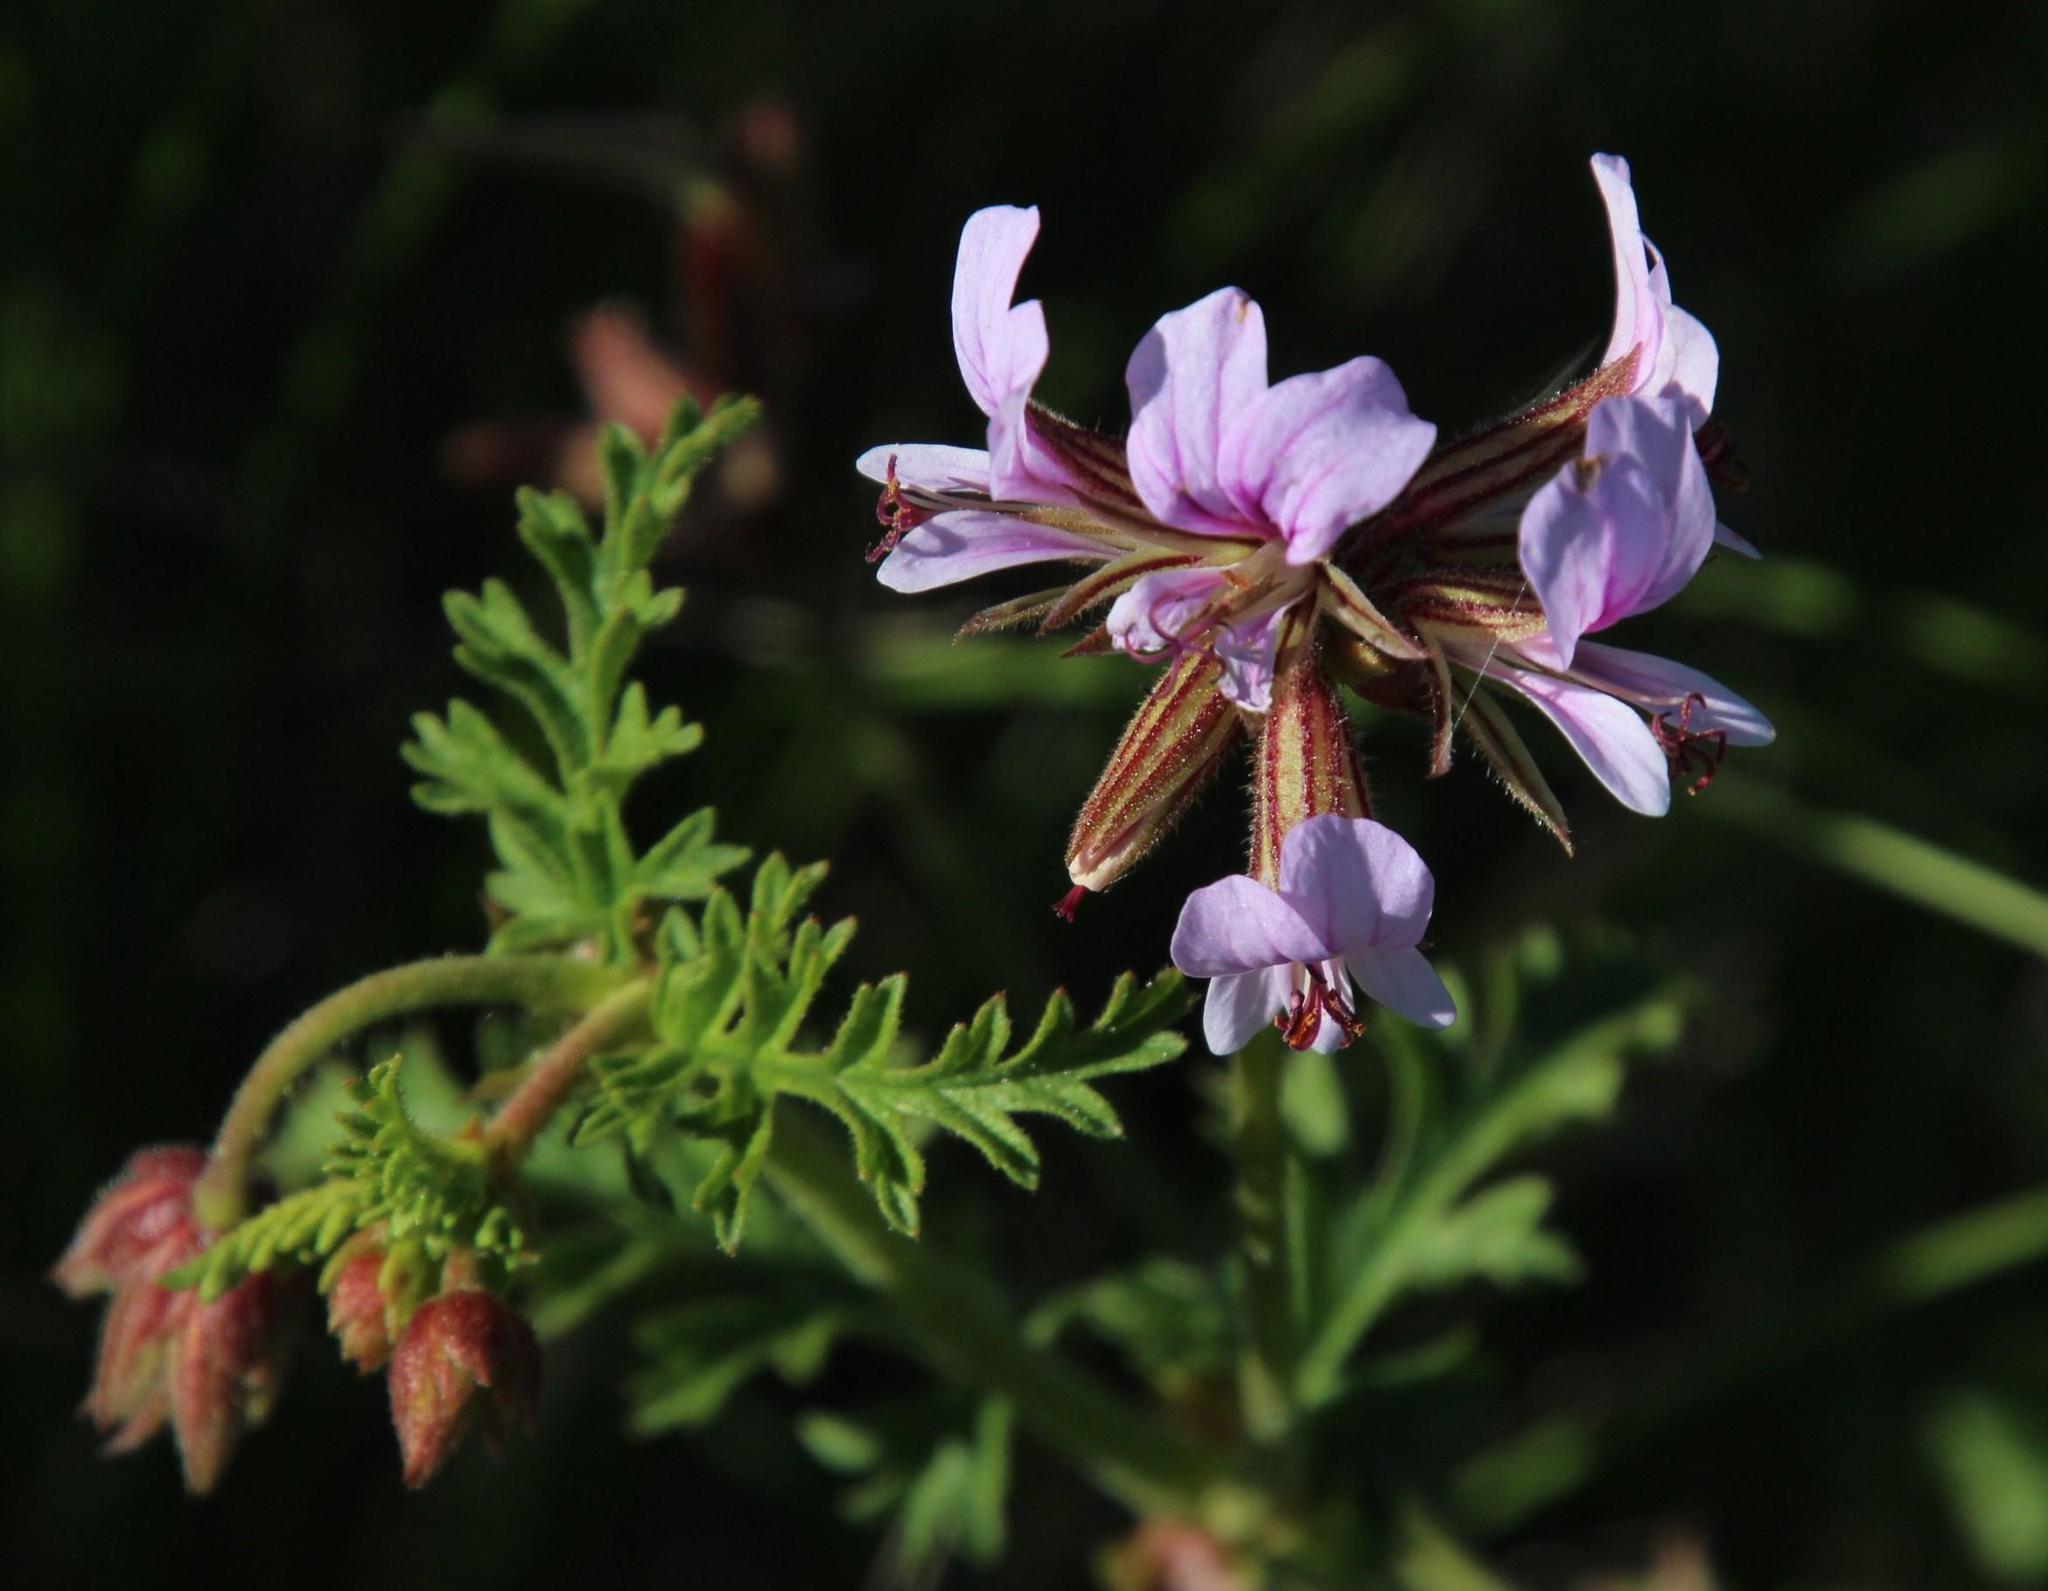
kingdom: Plantae
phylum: Tracheophyta
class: Magnoliopsida
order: Geraniales
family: Geraniaceae
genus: Pelargonium
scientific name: Pelargonium myrrhifolium
